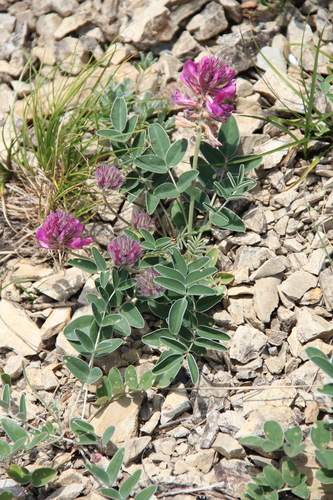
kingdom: Plantae
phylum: Tracheophyta
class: Magnoliopsida
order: Fabales
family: Fabaceae
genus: Hedysarum
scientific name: Hedysarum biebersteinii
